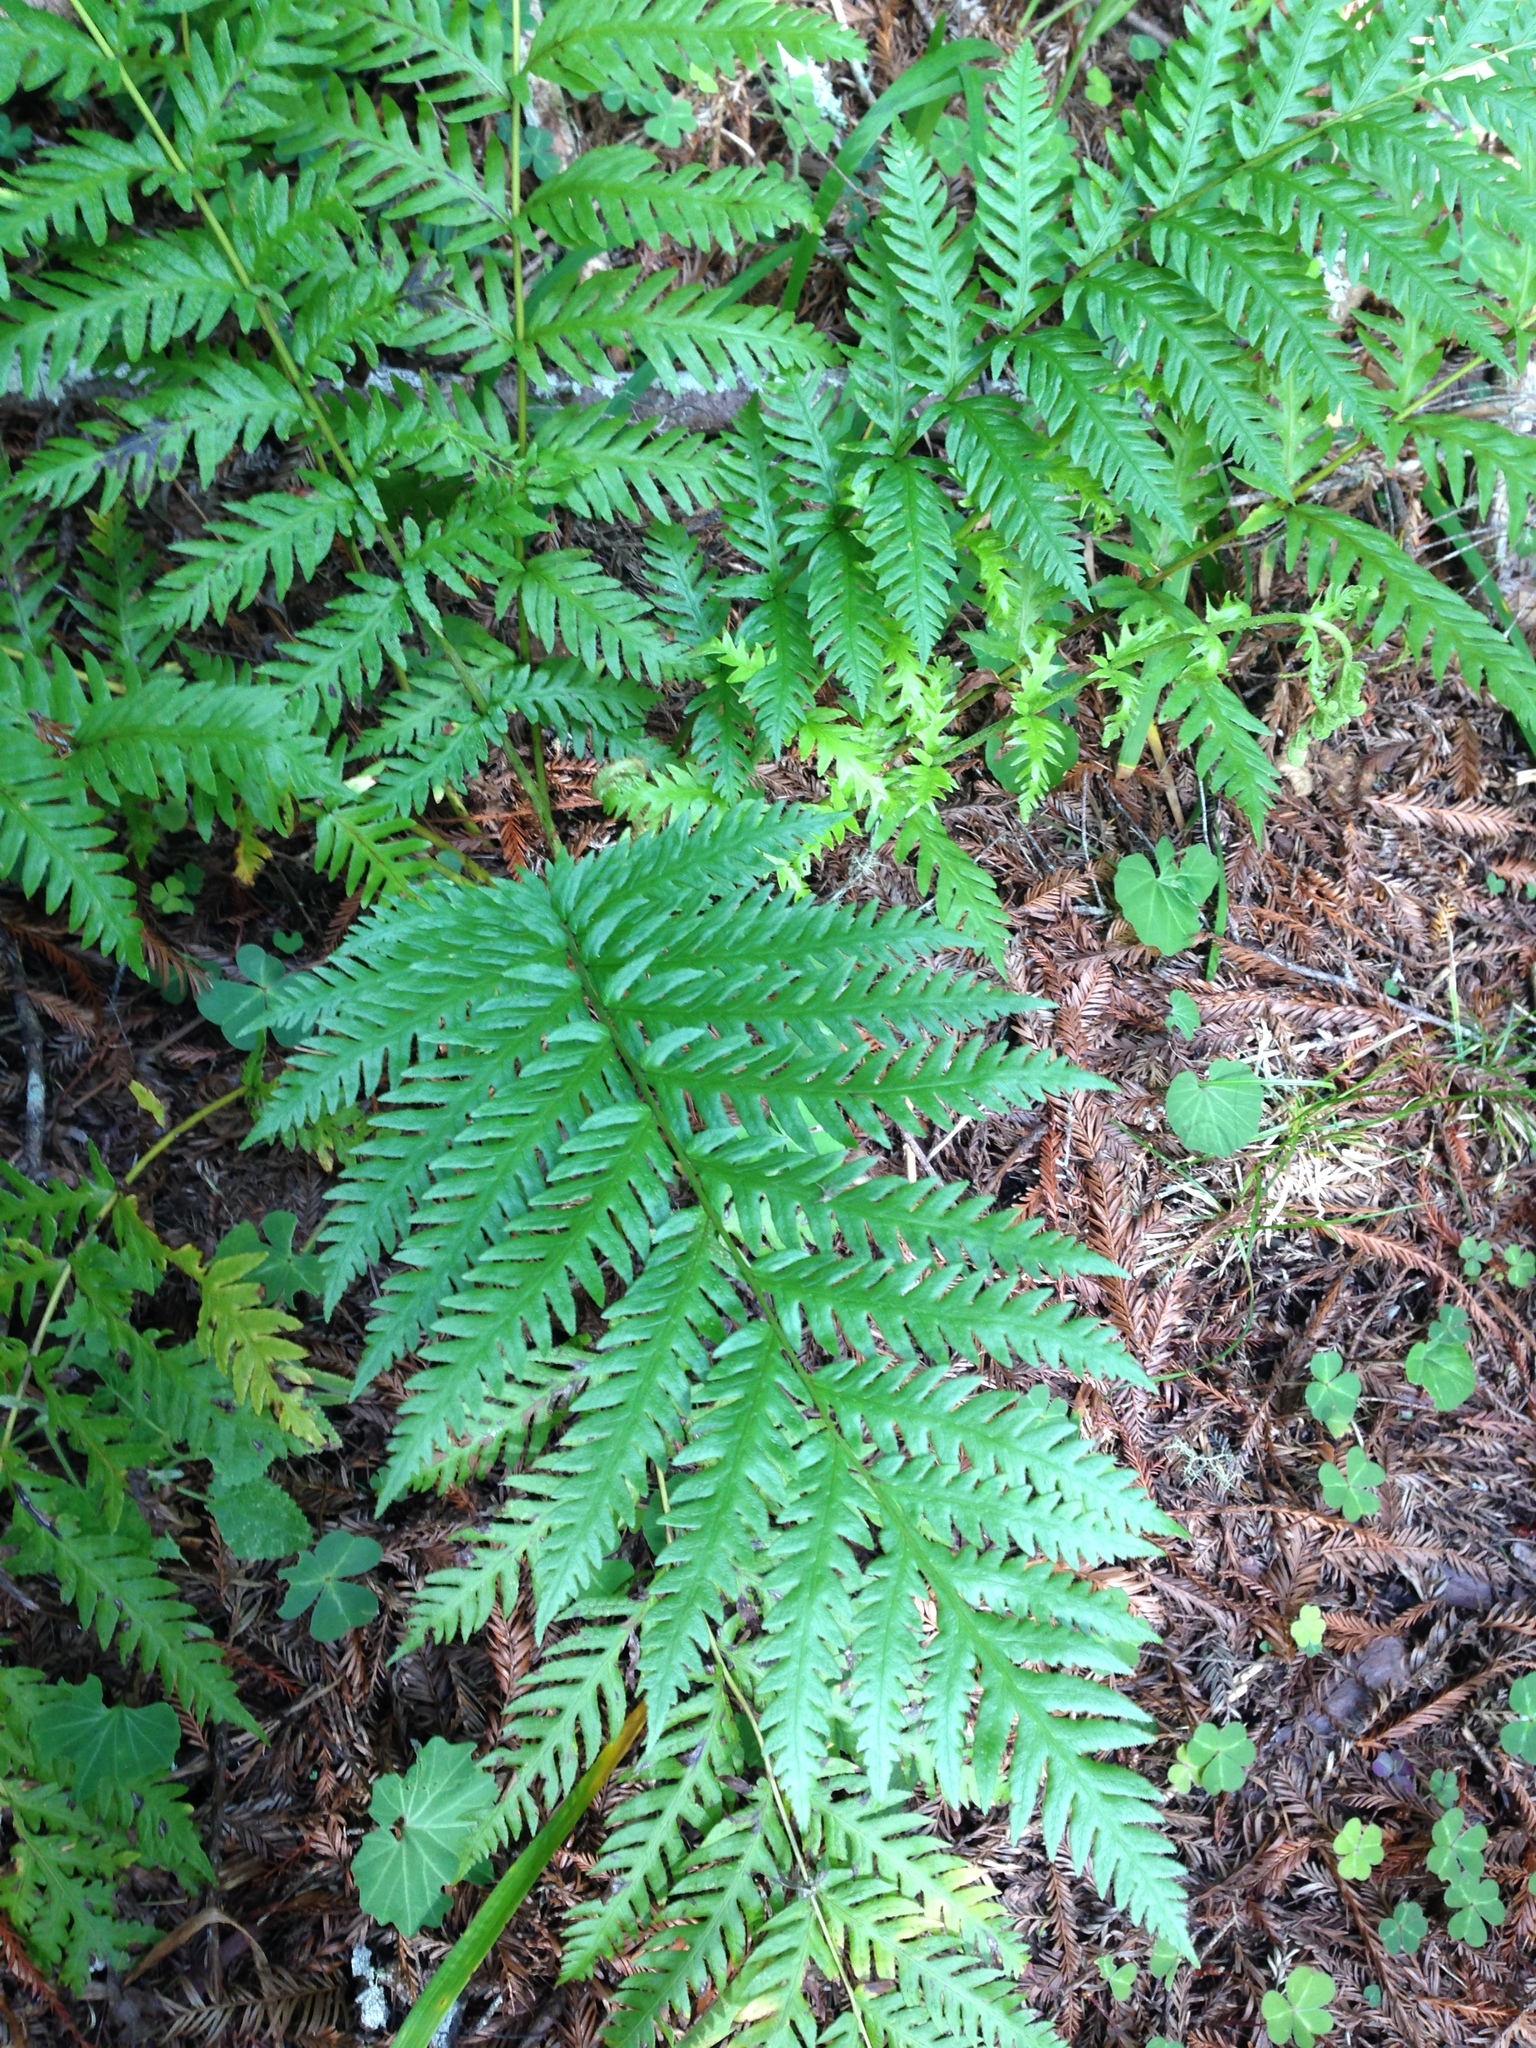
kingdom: Plantae
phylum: Tracheophyta
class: Polypodiopsida
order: Polypodiales
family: Blechnaceae
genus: Woodwardia
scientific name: Woodwardia fimbriata
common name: Giant chain fern
